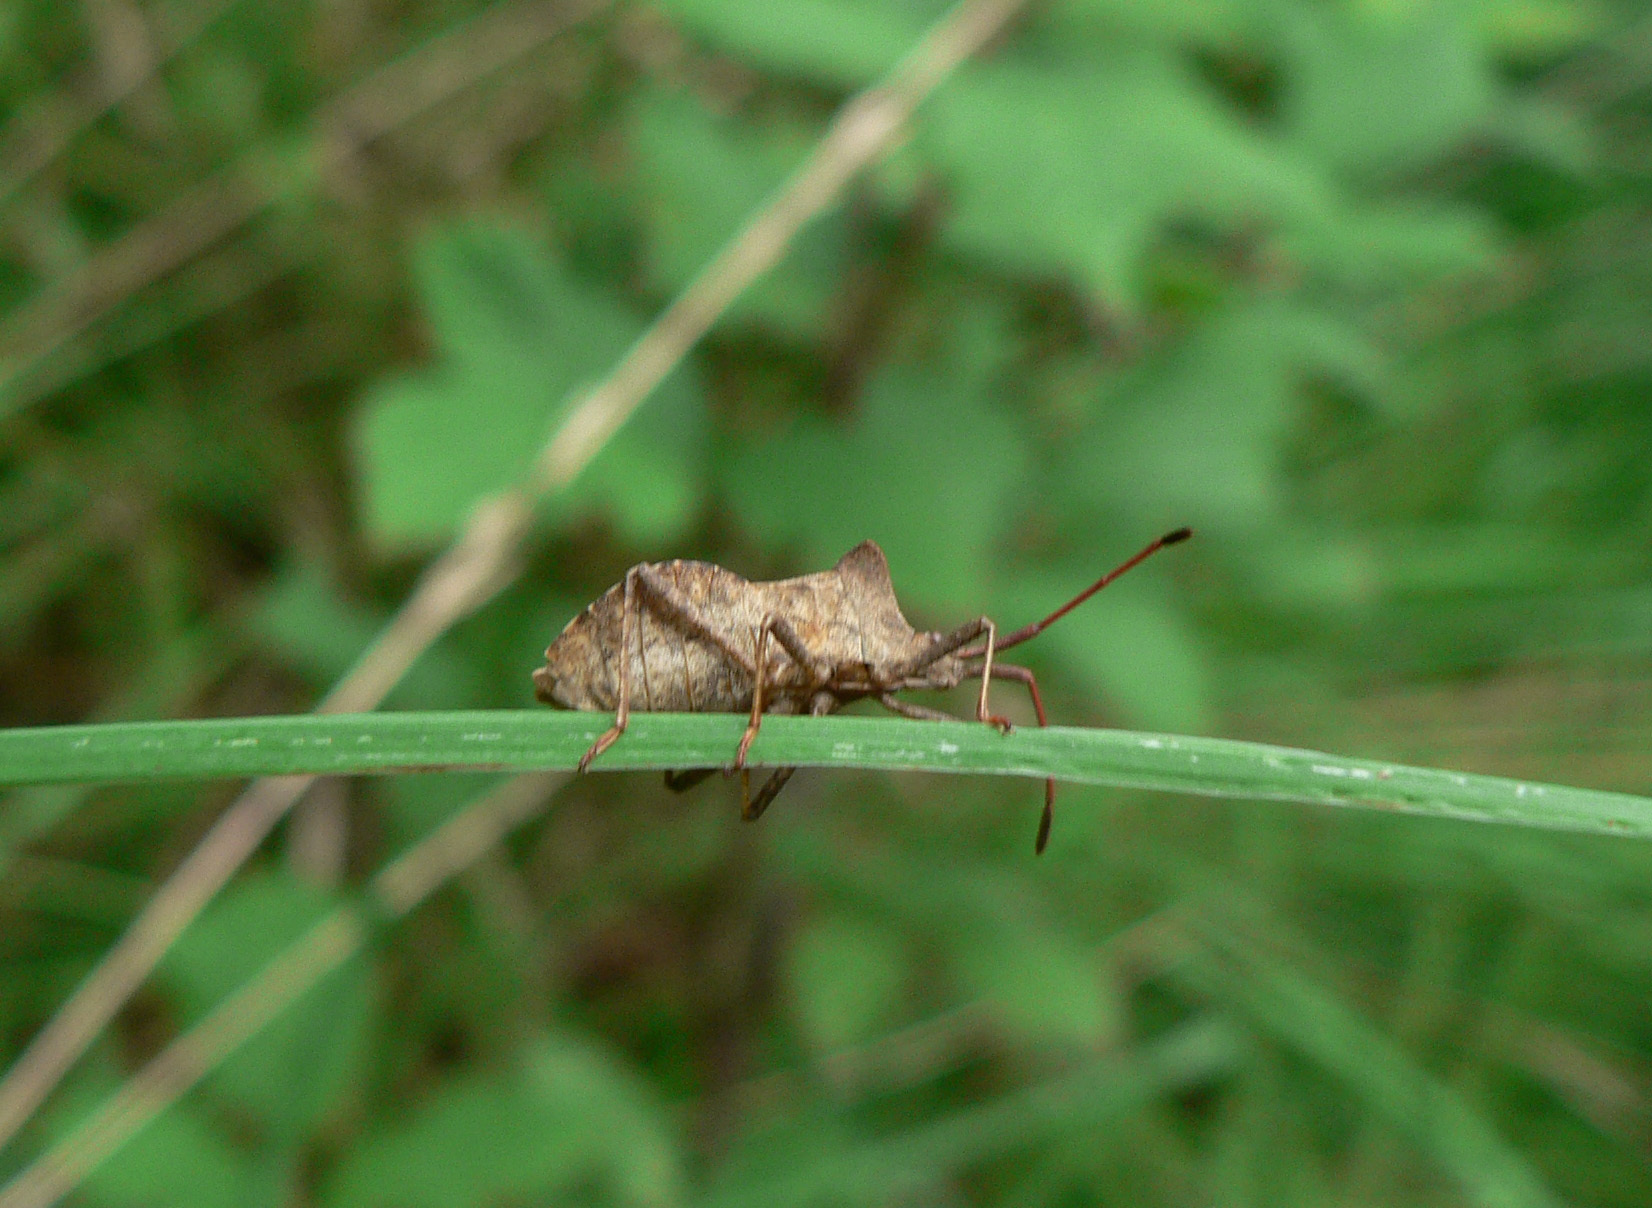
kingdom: Animalia
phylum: Arthropoda
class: Insecta
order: Hemiptera
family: Coreidae
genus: Coreus
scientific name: Coreus marginatus
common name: Dock bug
